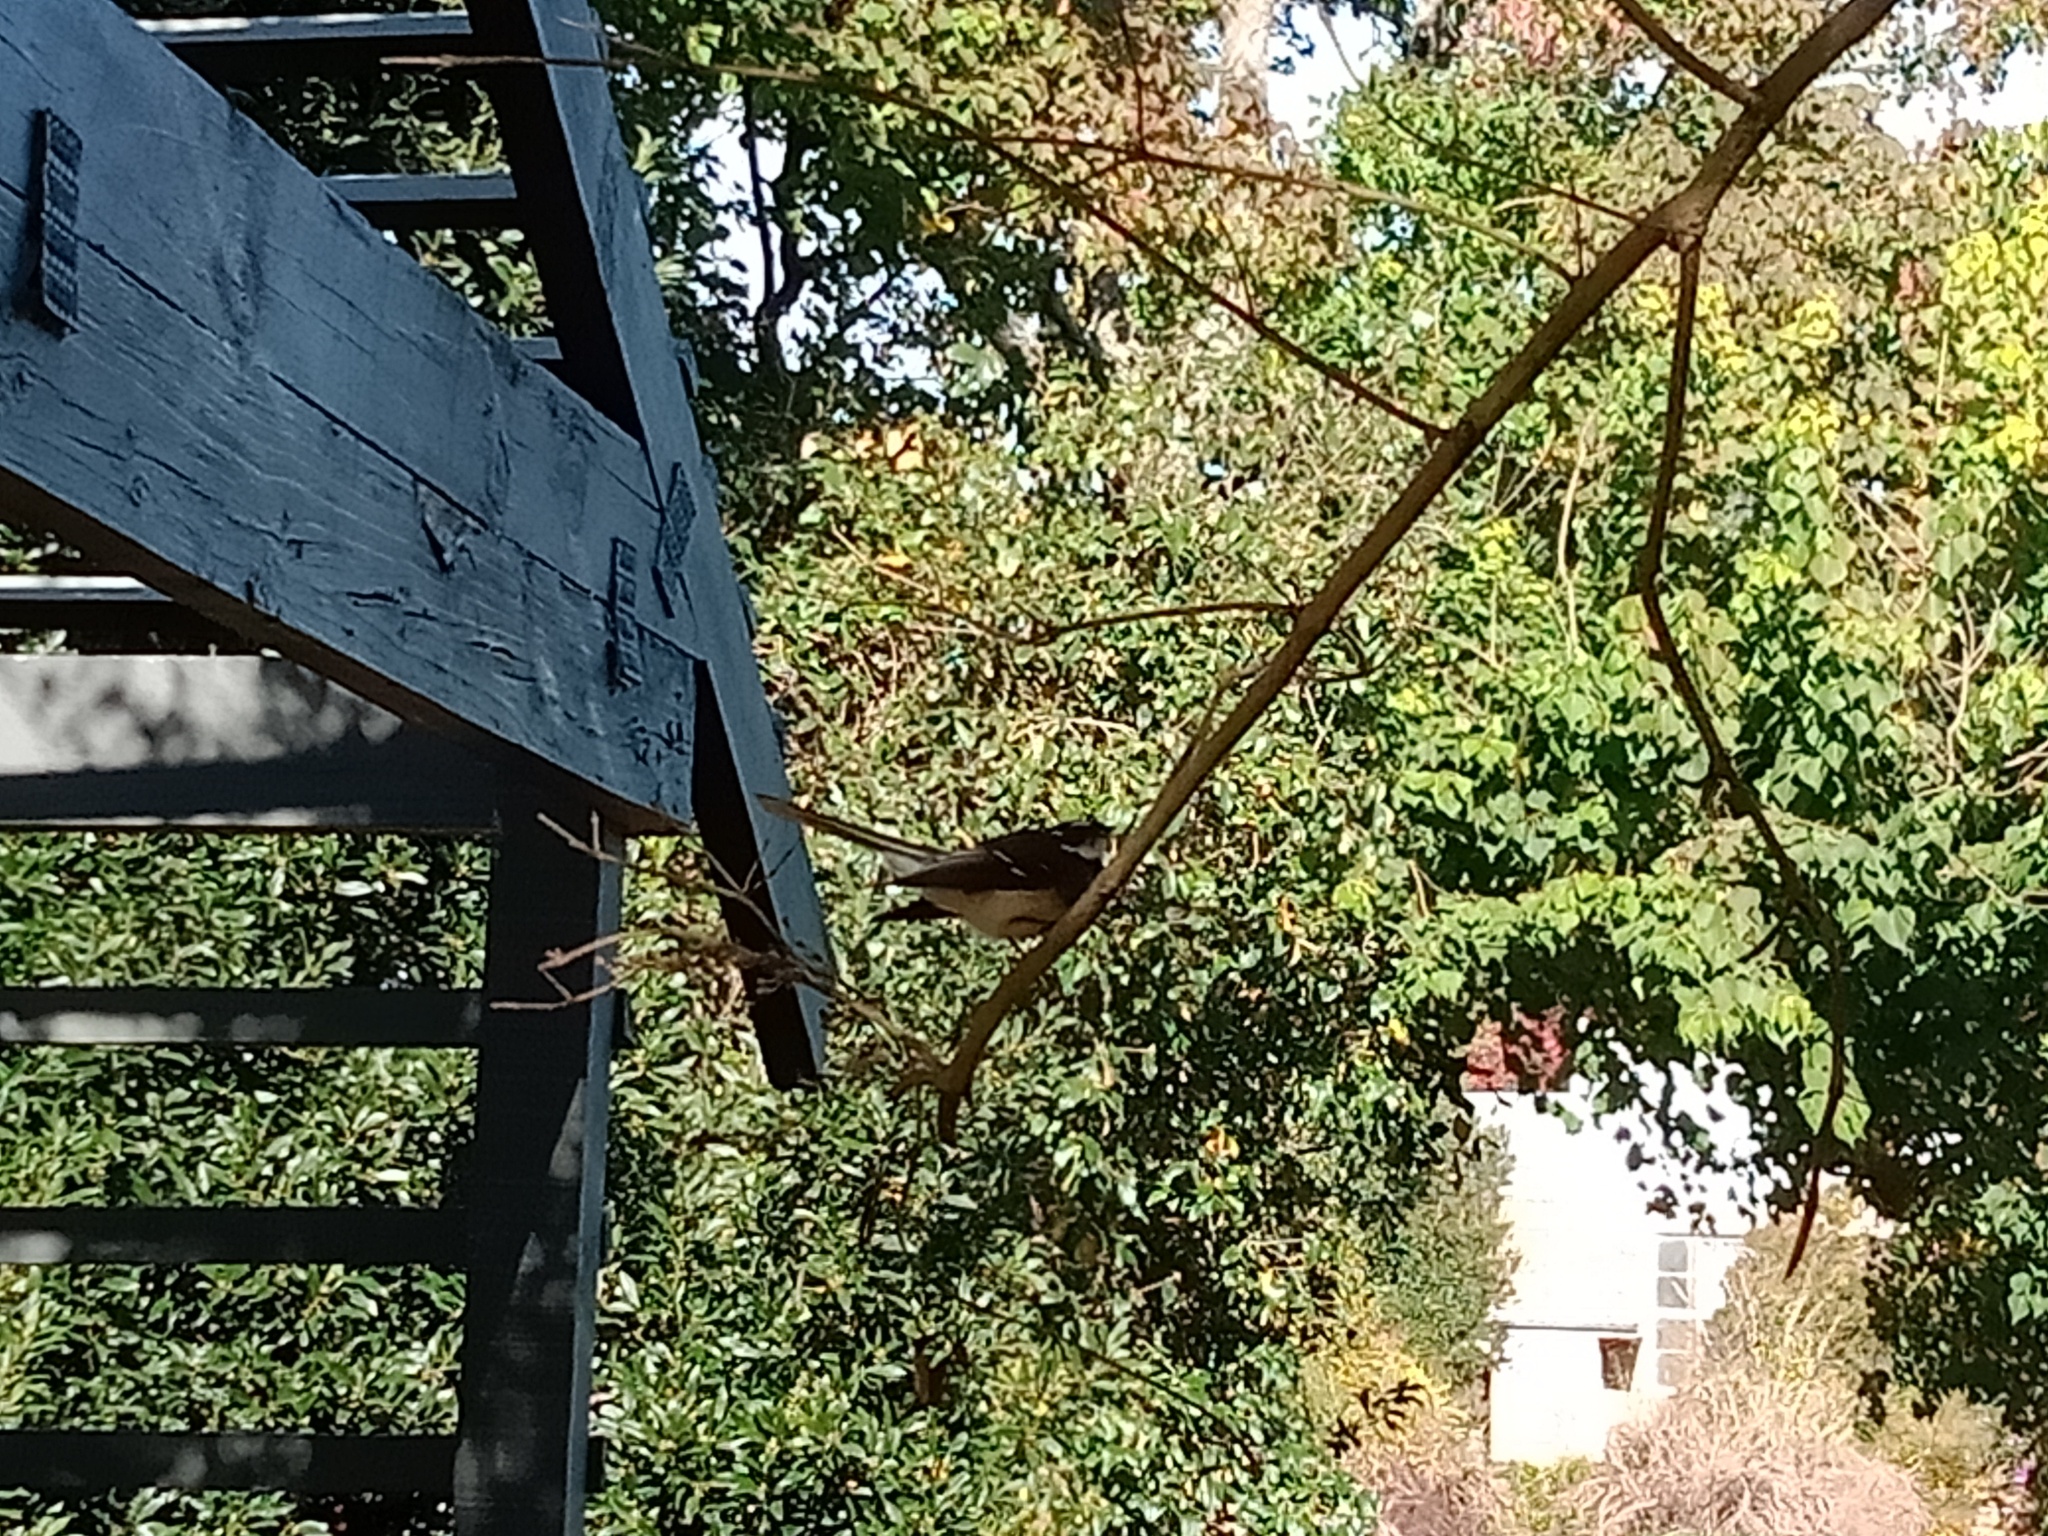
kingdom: Animalia
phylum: Chordata
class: Aves
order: Passeriformes
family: Rhipiduridae
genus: Rhipidura
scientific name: Rhipidura albiscapa
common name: Grey fantail
